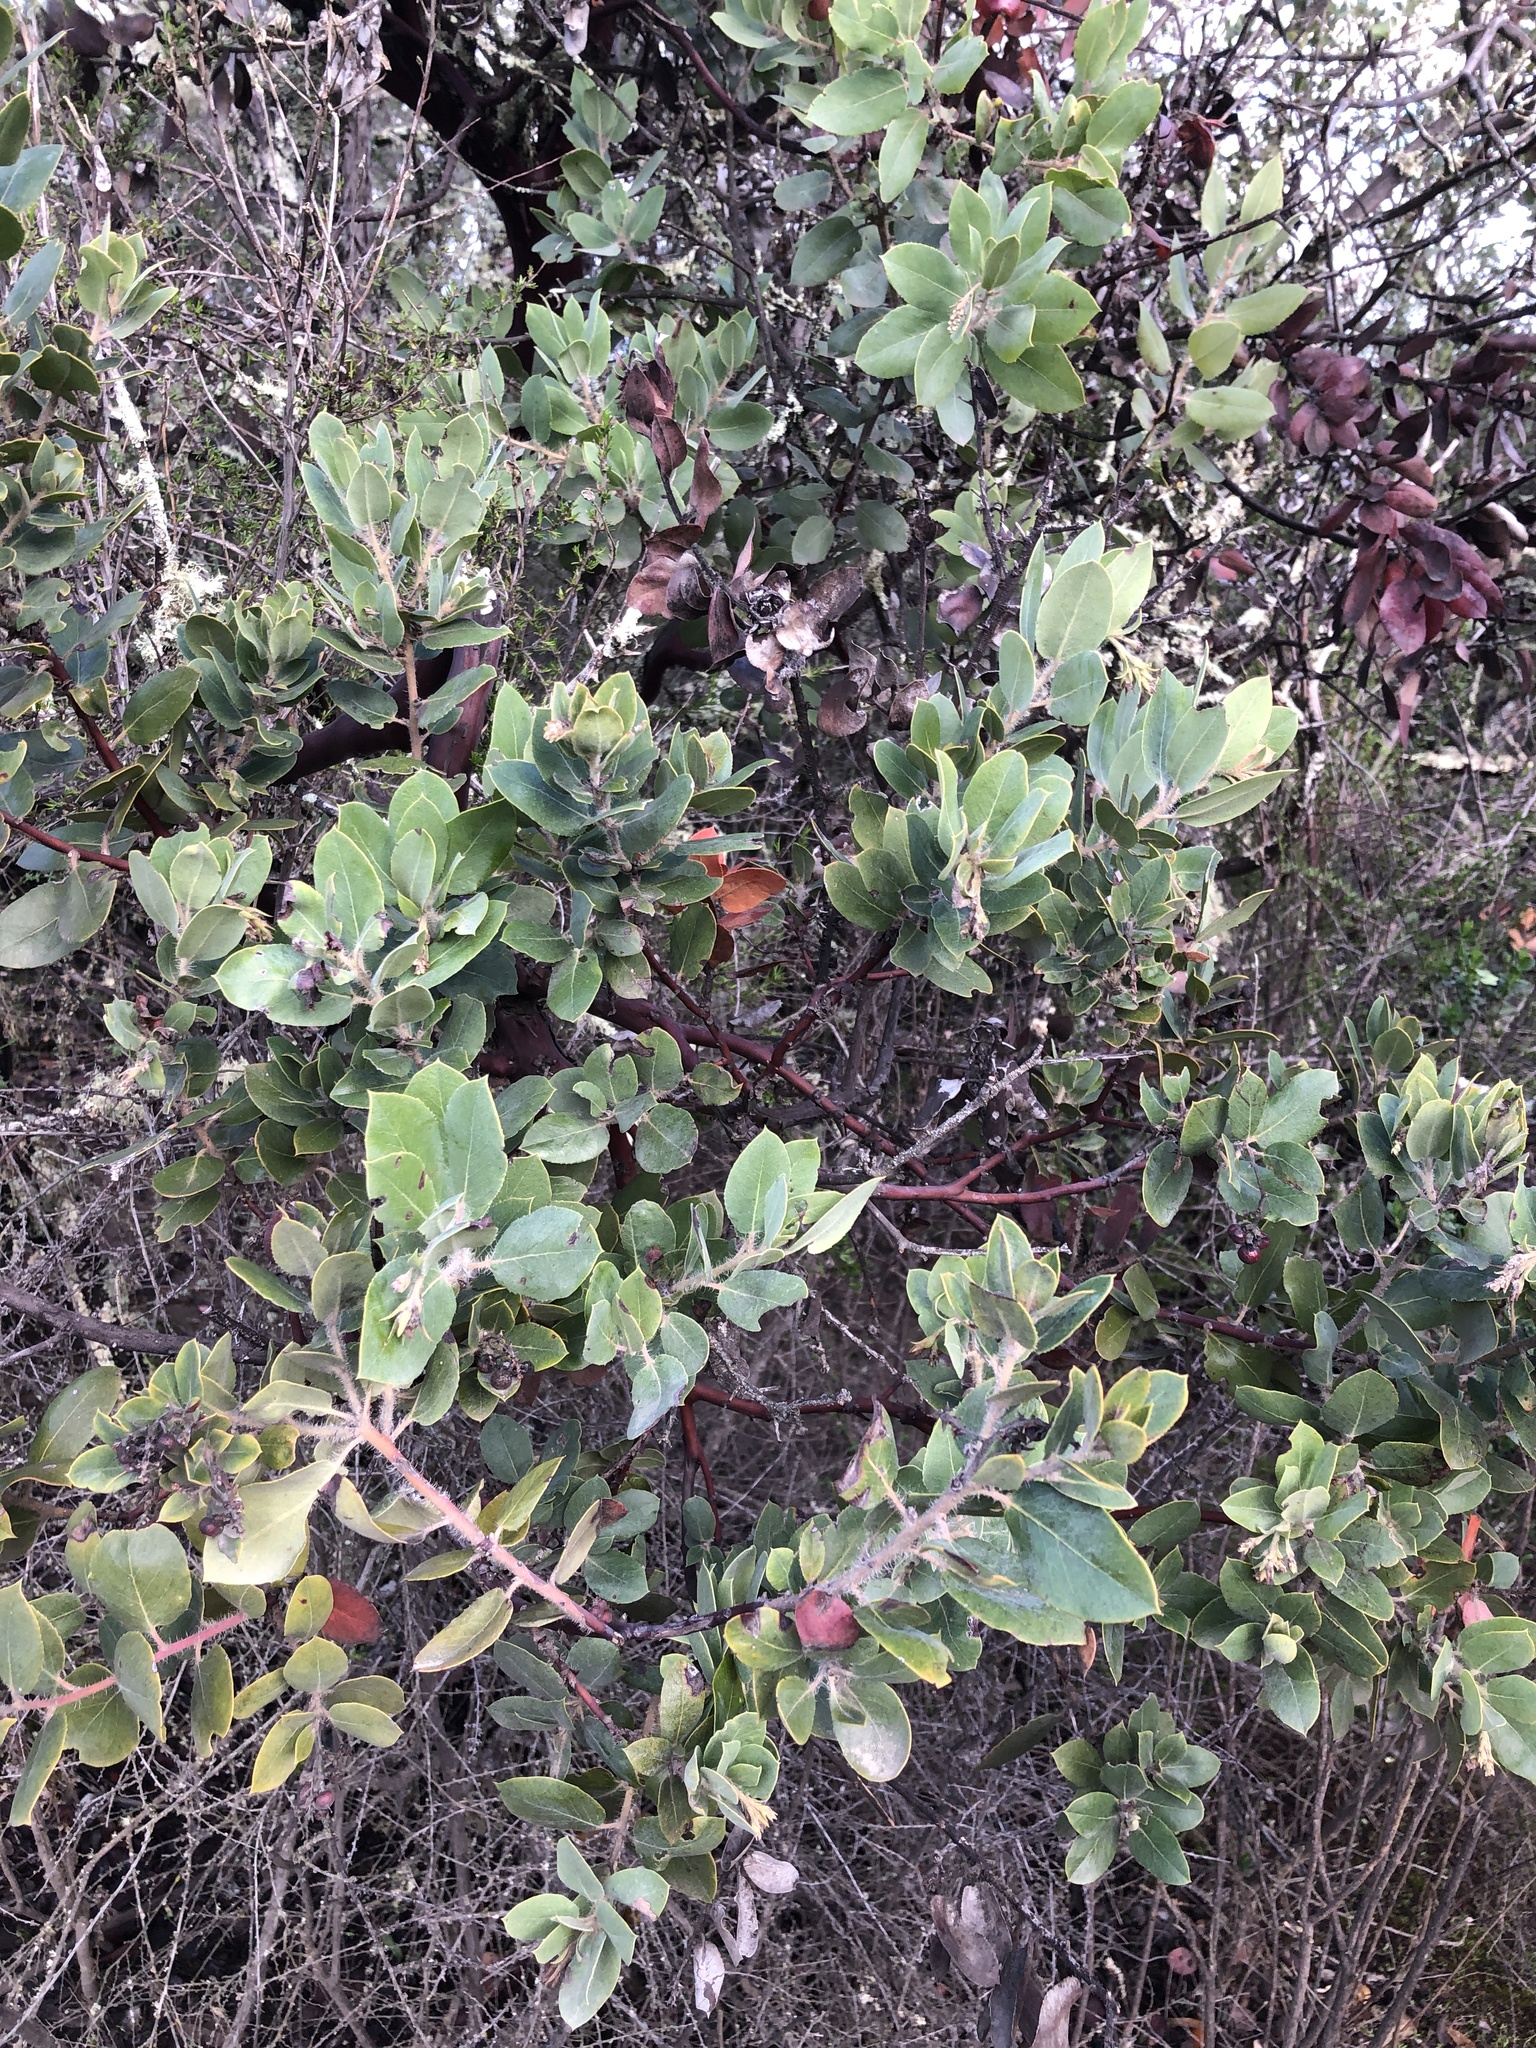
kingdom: Plantae
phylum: Tracheophyta
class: Magnoliopsida
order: Ericales
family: Ericaceae
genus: Arctostaphylos
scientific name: Arctostaphylos crustacea
